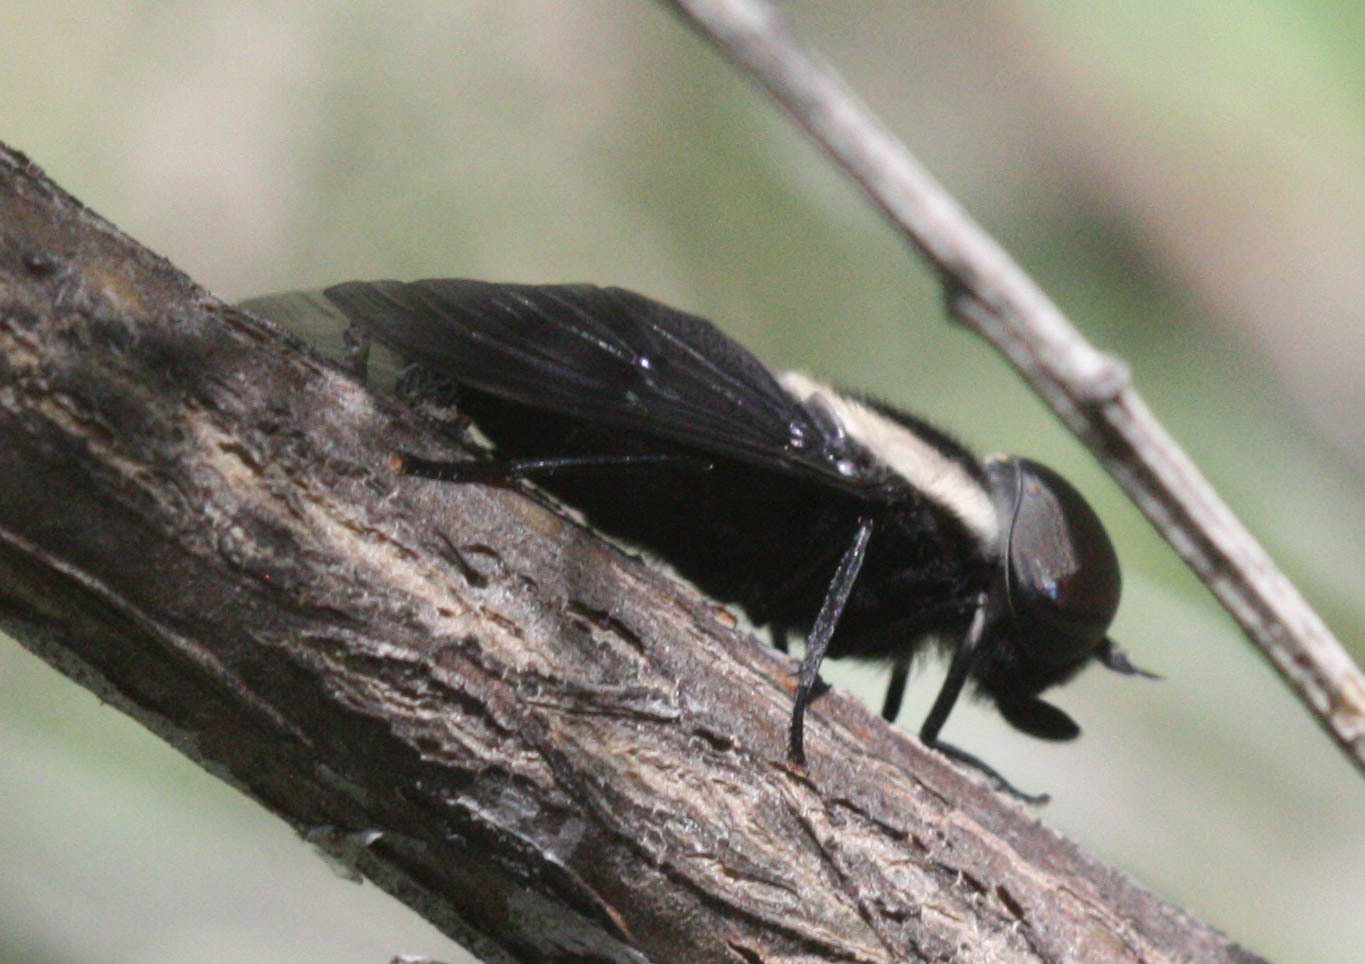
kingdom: Animalia
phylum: Arthropoda
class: Insecta
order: Diptera
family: Tabanidae
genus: Tabanus
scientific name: Tabanus punctifer
